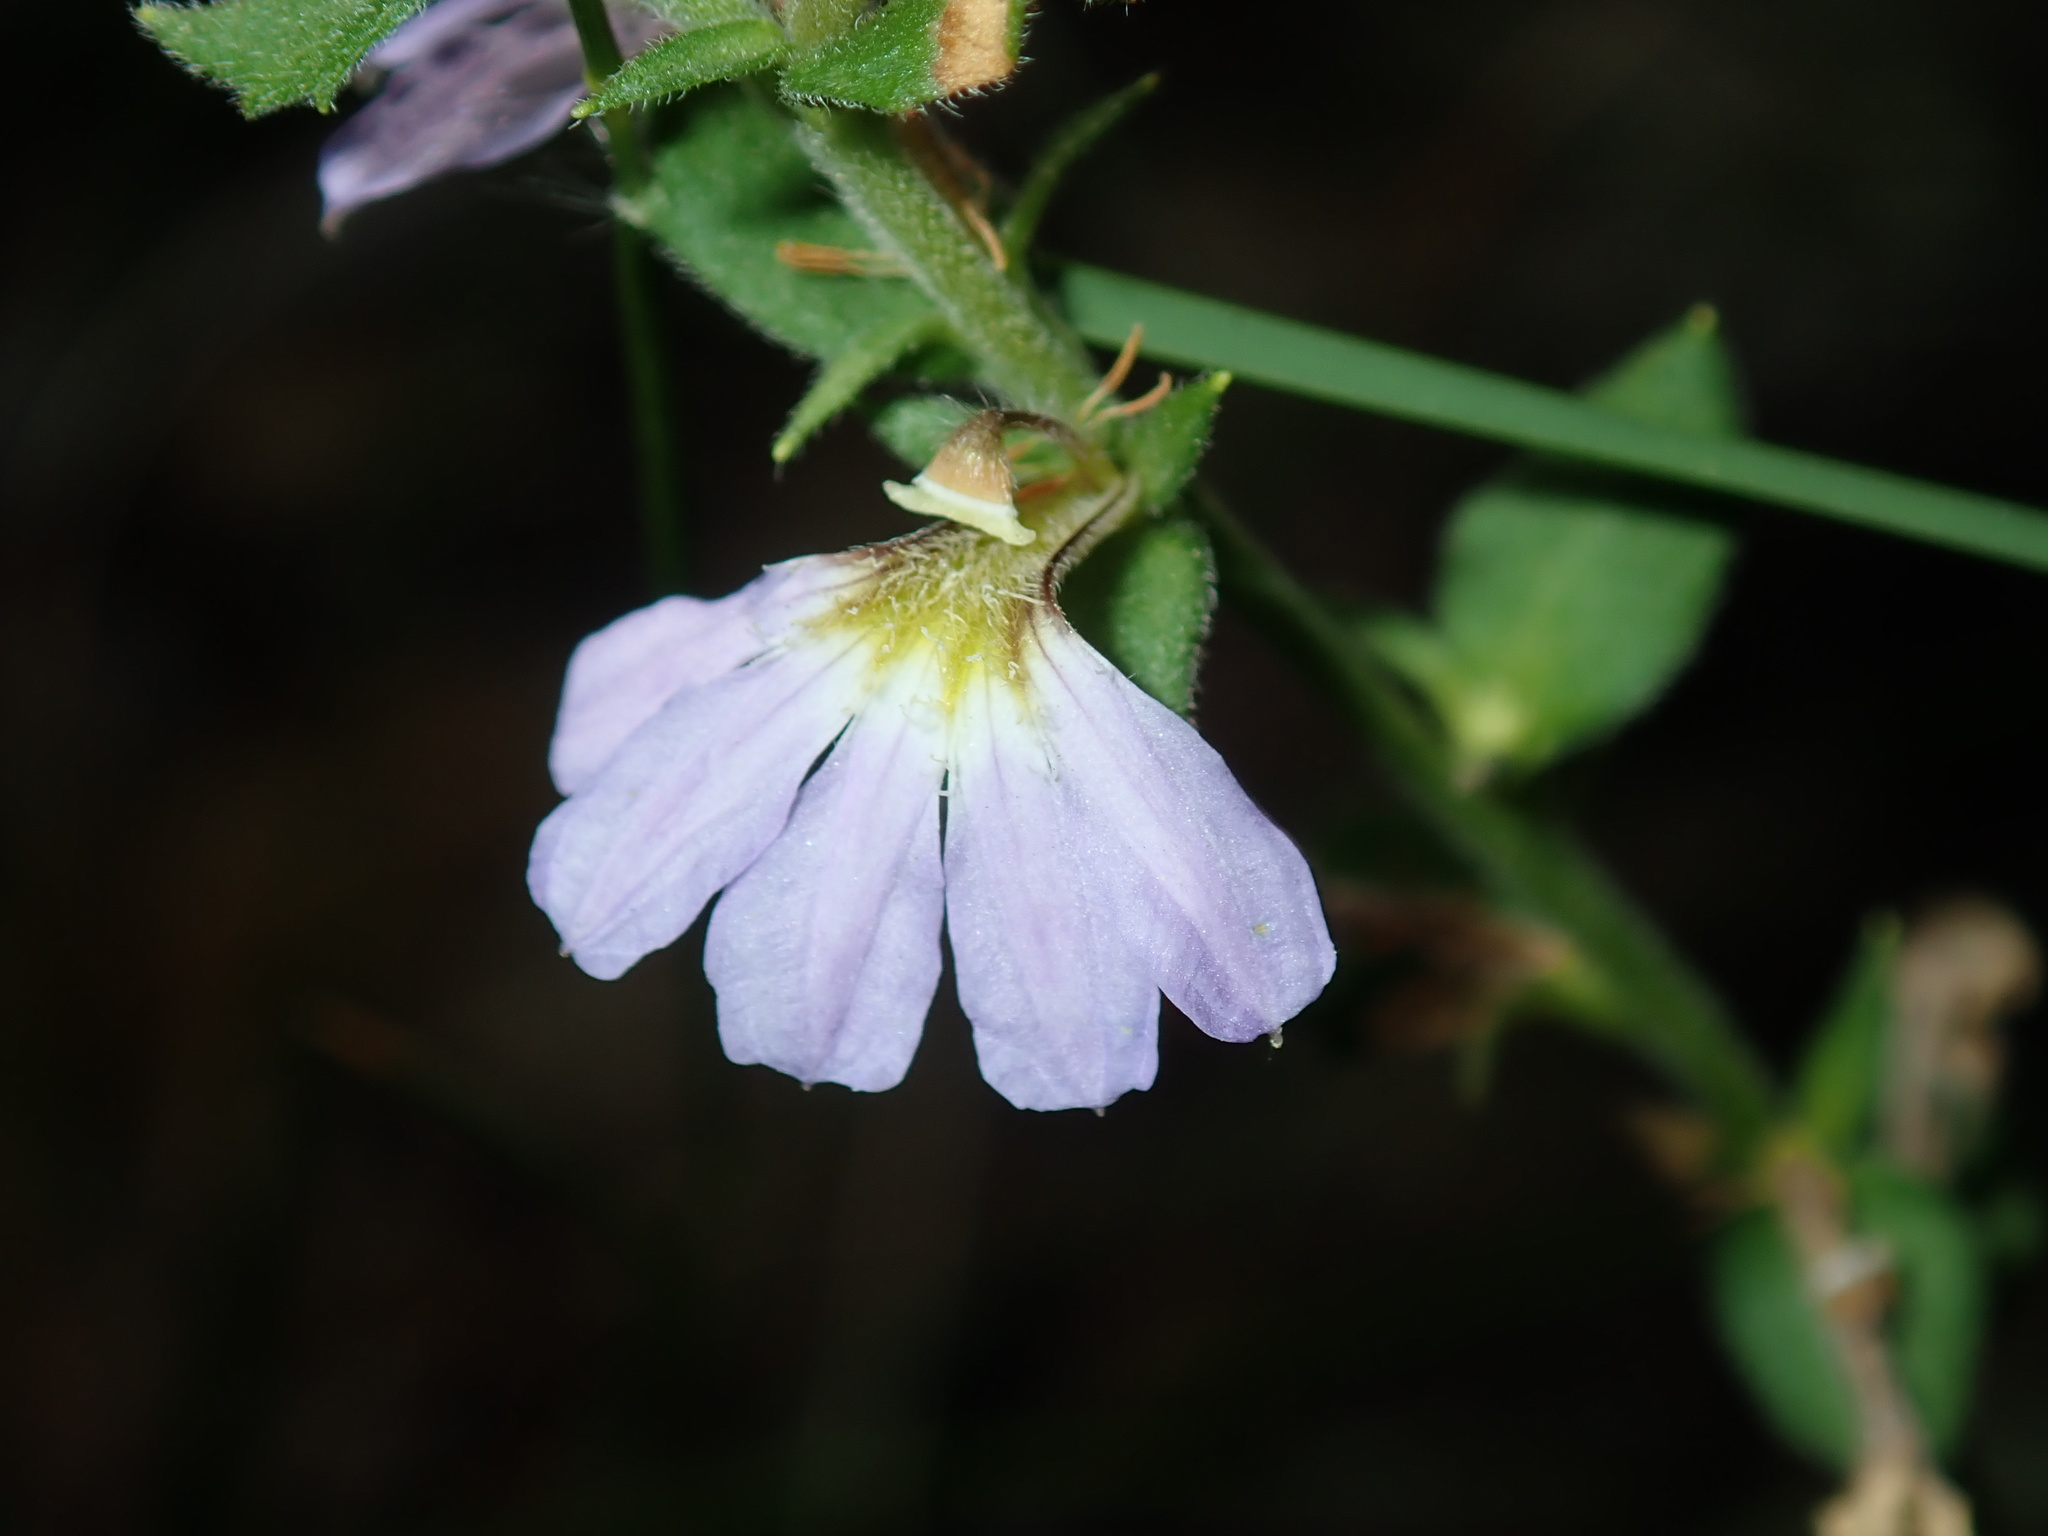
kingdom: Plantae
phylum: Tracheophyta
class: Magnoliopsida
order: Asterales
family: Goodeniaceae
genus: Scaevola
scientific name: Scaevola albida
